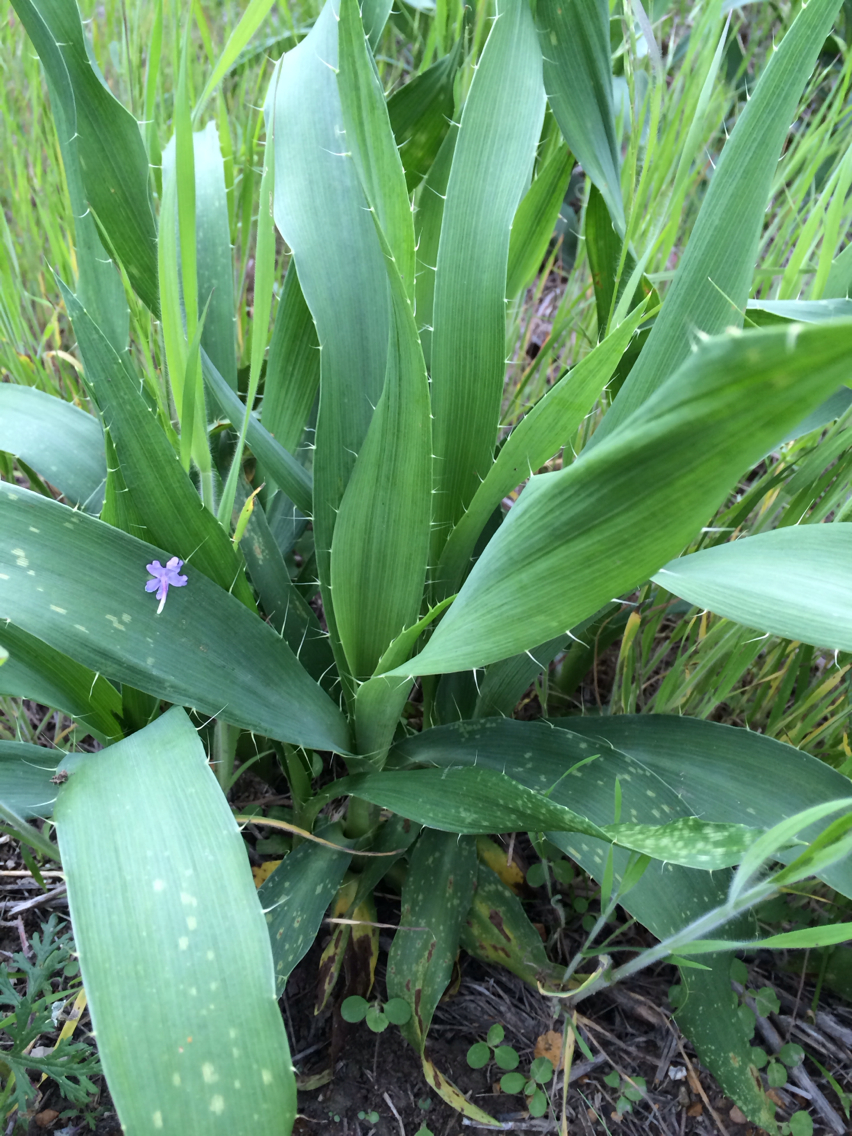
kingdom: Plantae
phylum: Tracheophyta
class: Magnoliopsida
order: Apiales
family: Apiaceae
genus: Eryngium
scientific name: Eryngium yuccifolium
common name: Button eryngo
